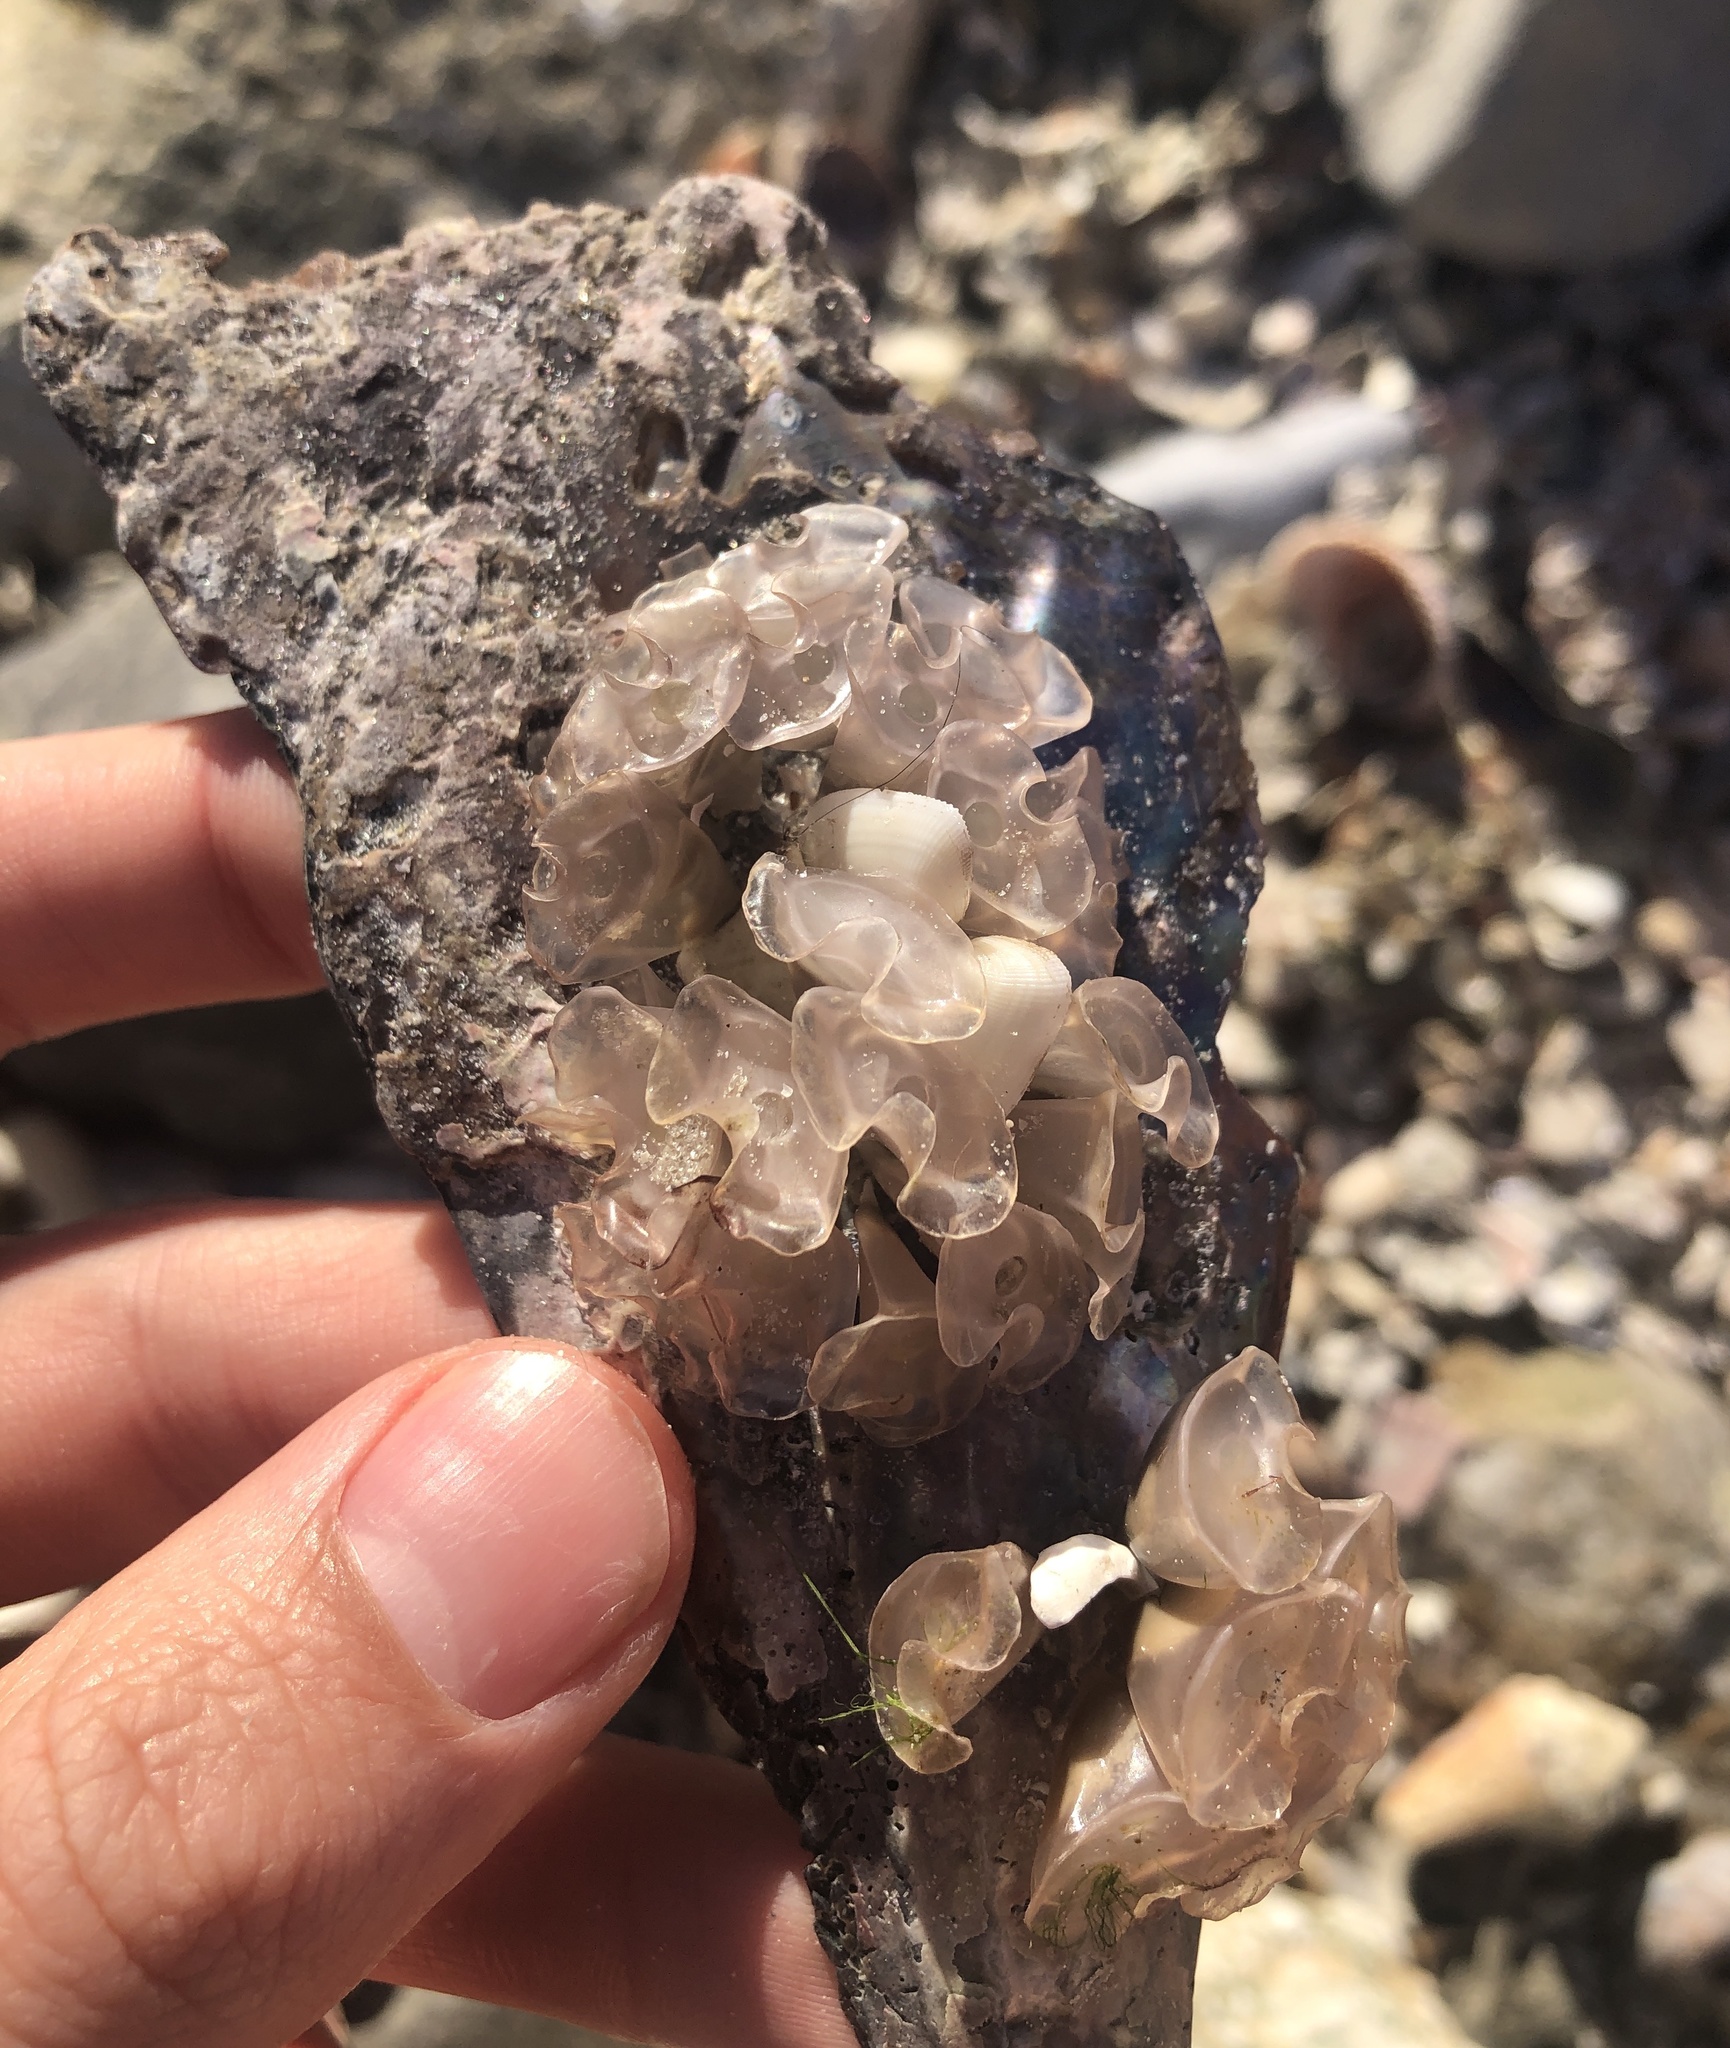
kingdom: Animalia
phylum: Mollusca
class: Gastropoda
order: Neogastropoda
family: Fasciolariidae
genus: Cinctura
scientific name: Cinctura hunteria
